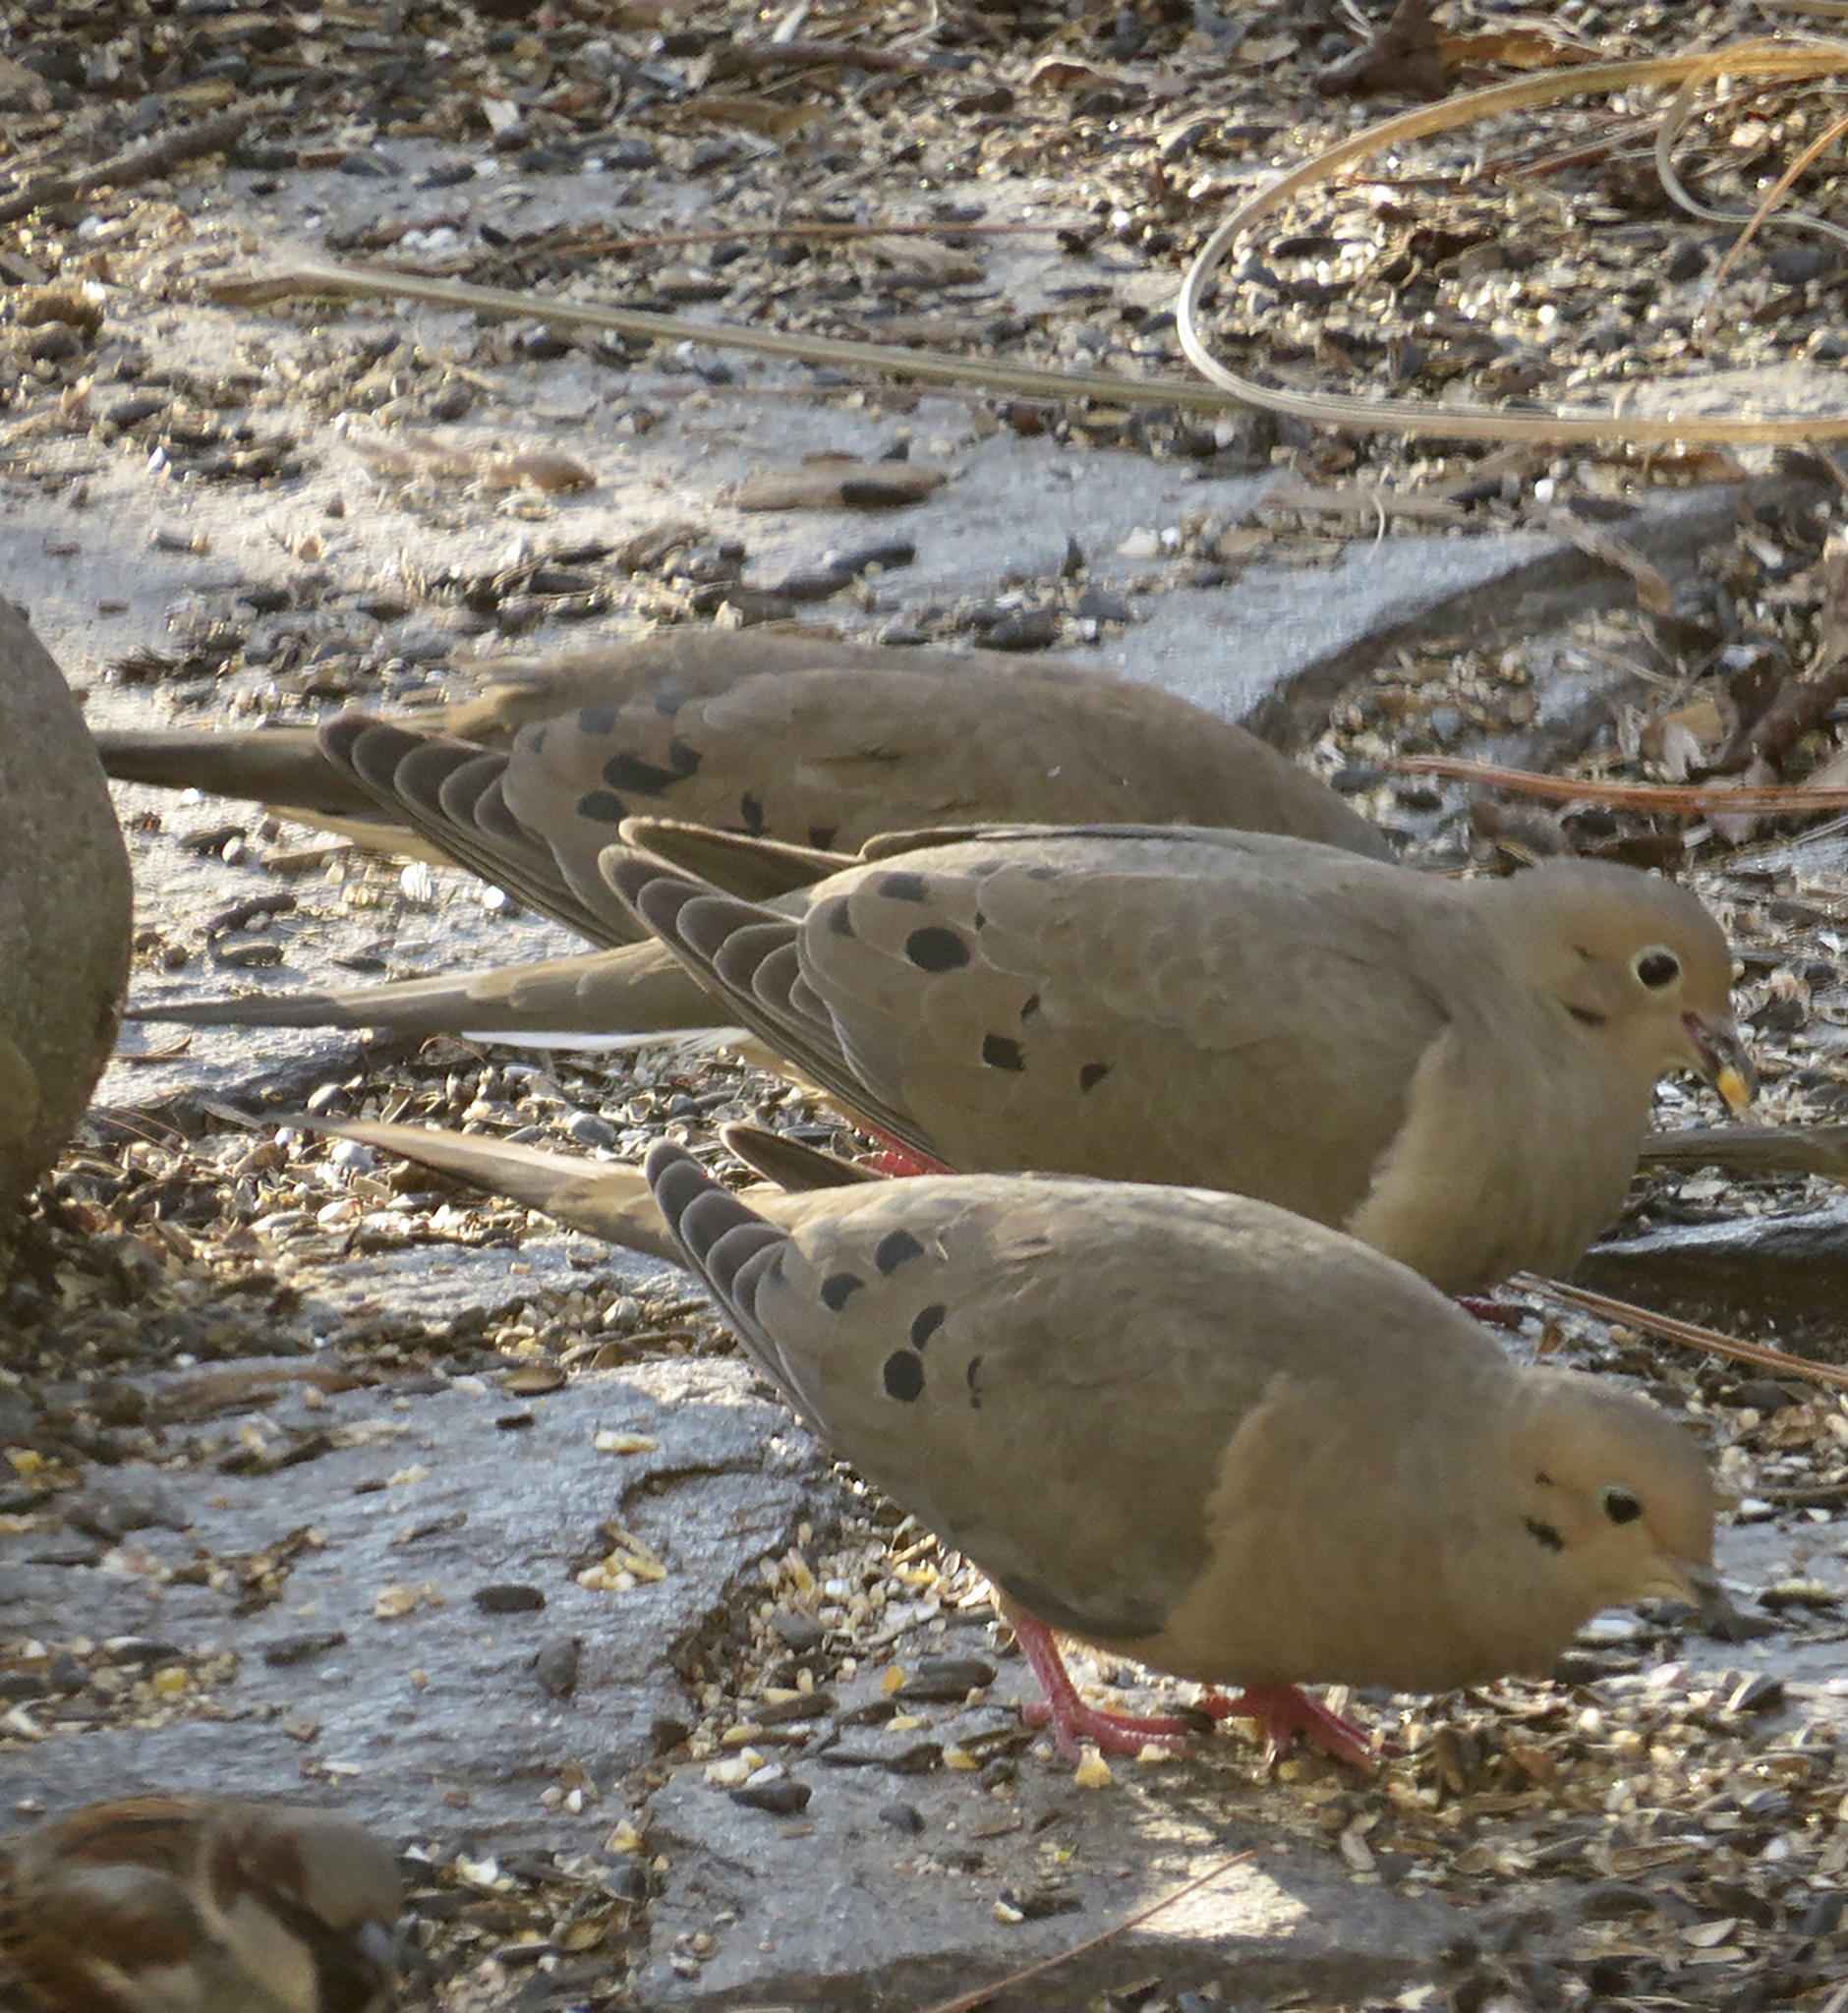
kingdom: Animalia
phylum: Chordata
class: Aves
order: Columbiformes
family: Columbidae
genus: Zenaida
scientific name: Zenaida macroura
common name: Mourning dove
